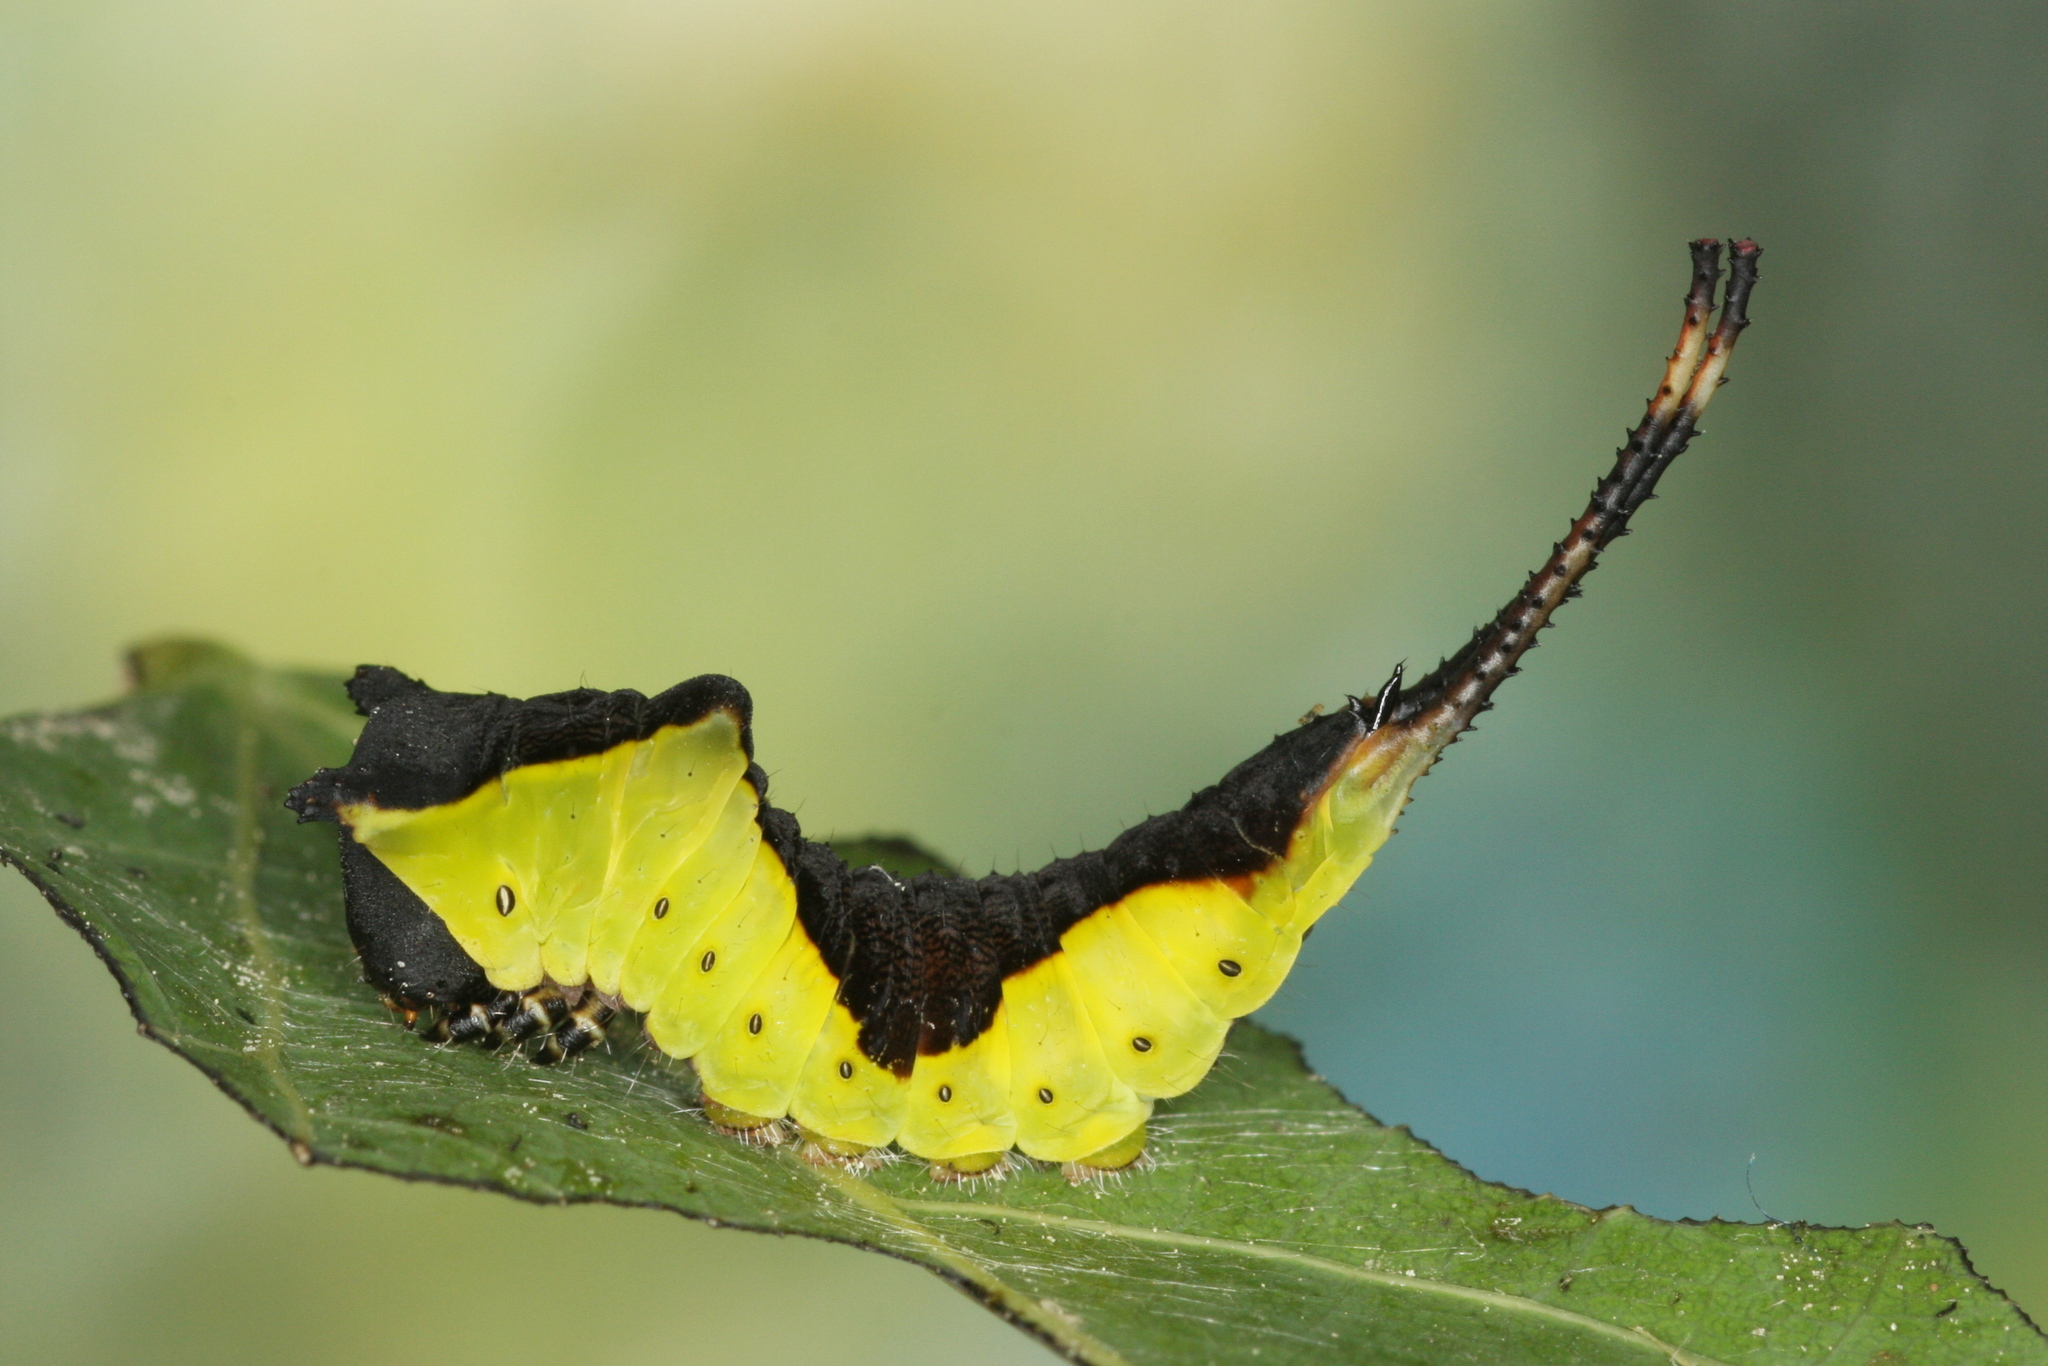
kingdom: Animalia
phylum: Arthropoda
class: Insecta
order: Lepidoptera
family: Notodontidae
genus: Cerura
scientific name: Cerura vinula
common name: Puss moth
